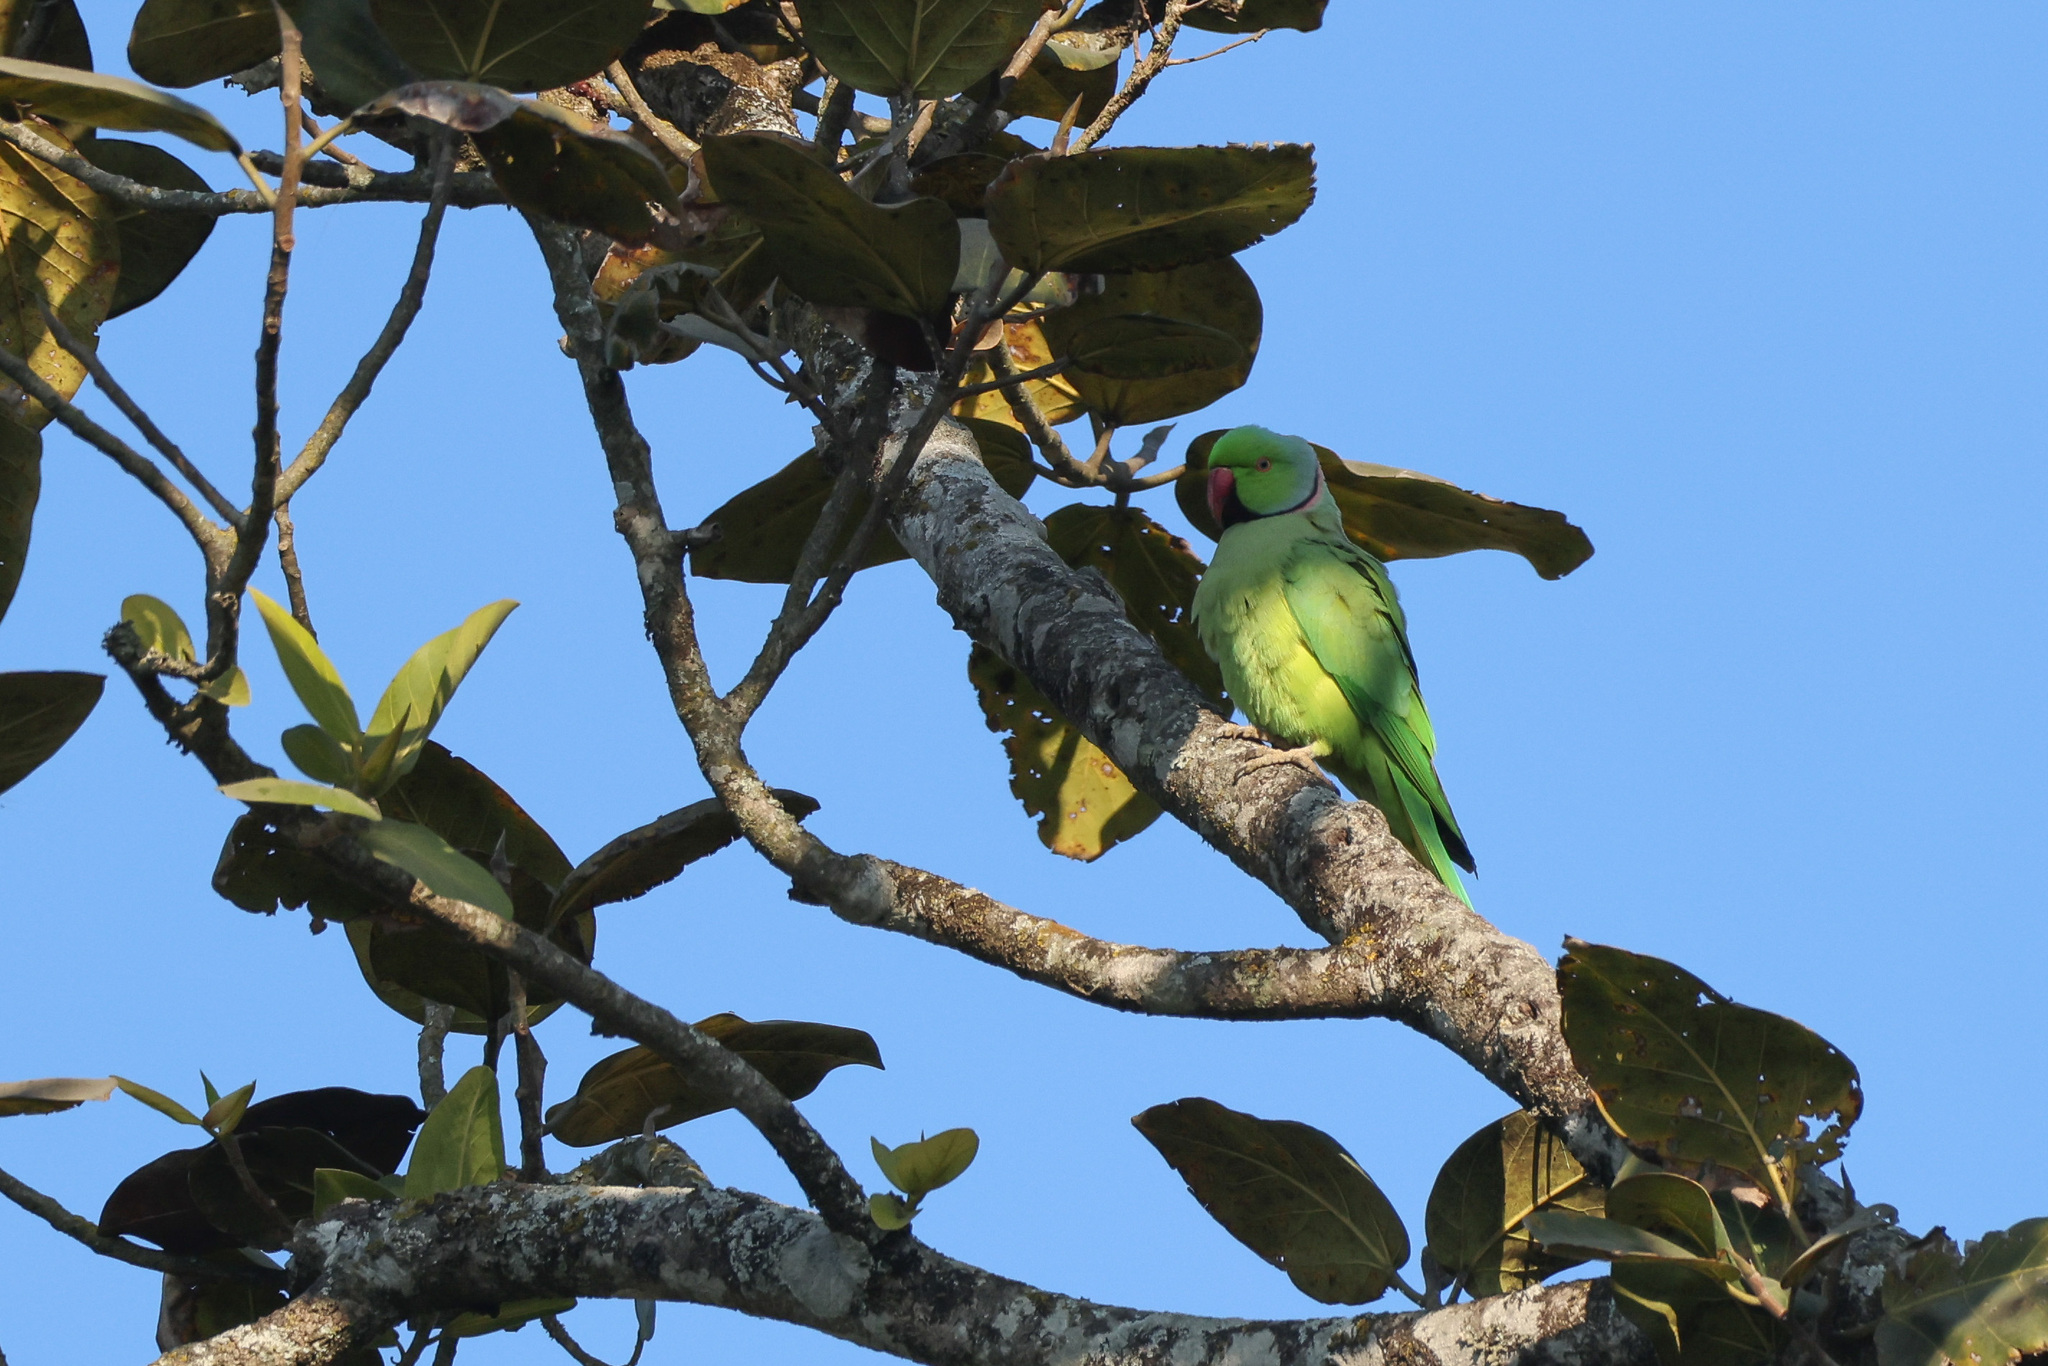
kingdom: Animalia
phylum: Chordata
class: Aves
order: Psittaciformes
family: Psittacidae
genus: Psittacula
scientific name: Psittacula krameri
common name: Rose-ringed parakeet
